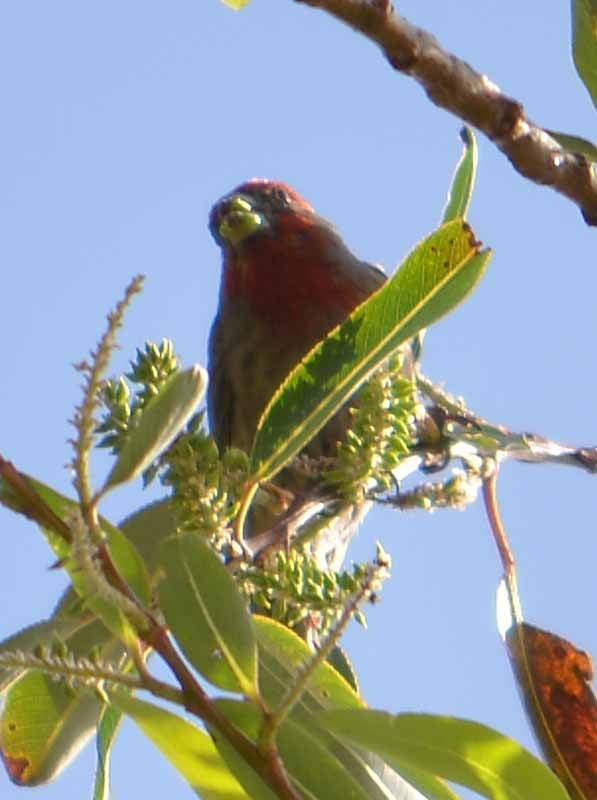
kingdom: Animalia
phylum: Chordata
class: Aves
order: Passeriformes
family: Fringillidae
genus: Haemorhous
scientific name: Haemorhous mexicanus
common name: House finch
